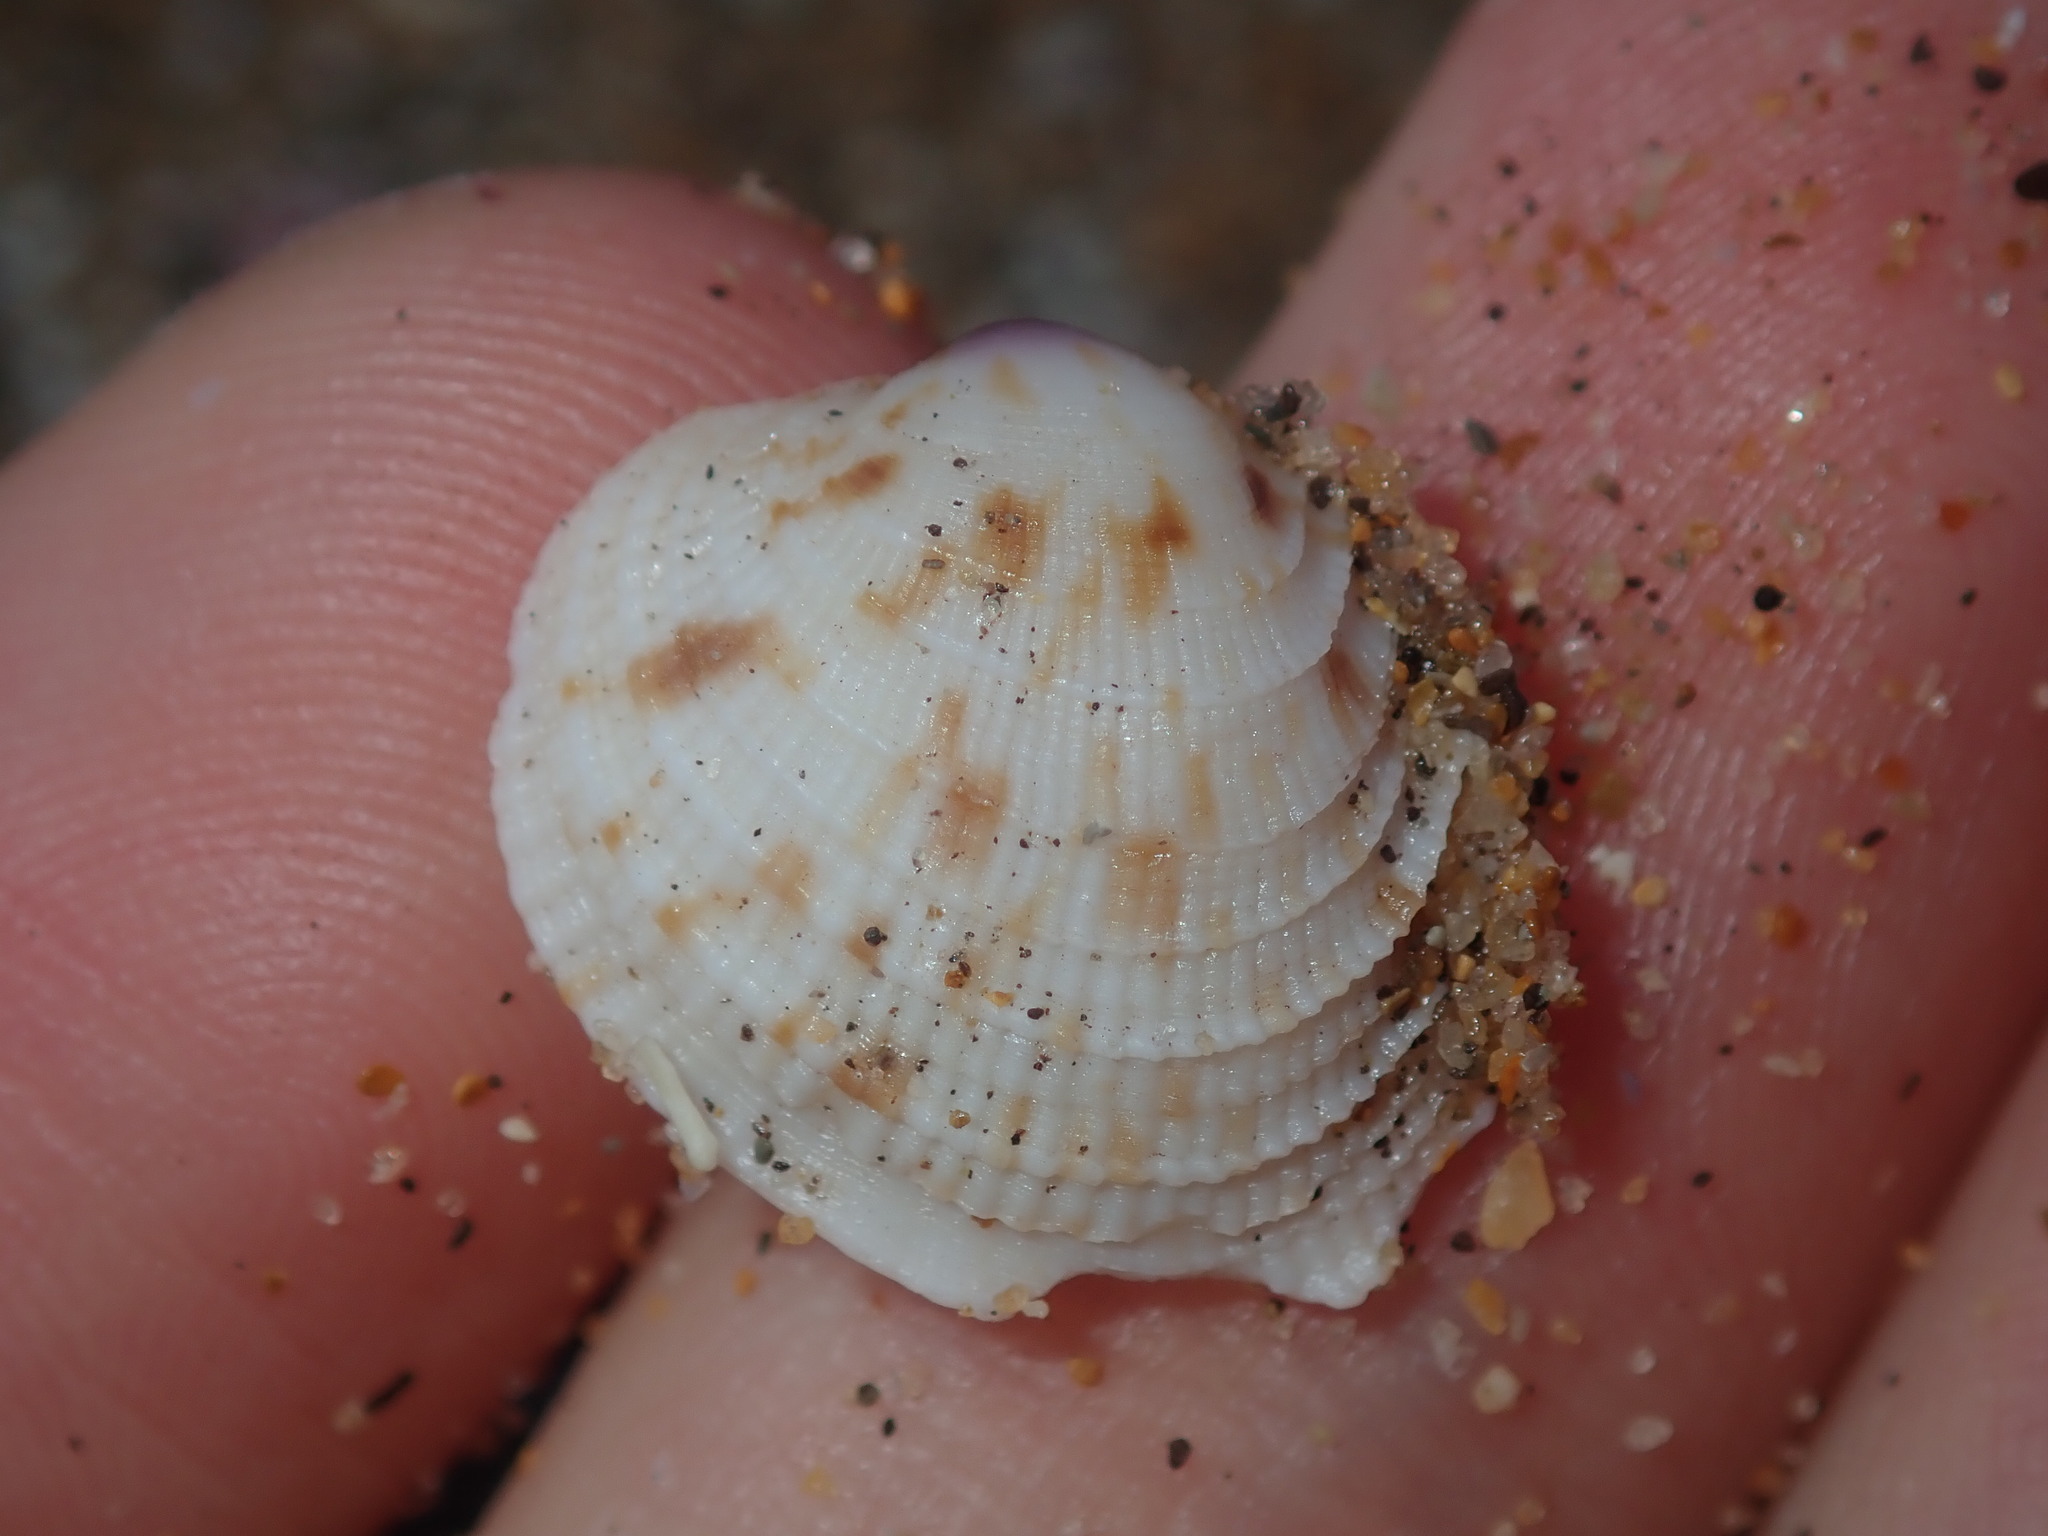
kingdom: Animalia
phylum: Mollusca
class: Bivalvia
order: Venerida
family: Veneridae
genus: Antigona
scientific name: Antigona persimilis
